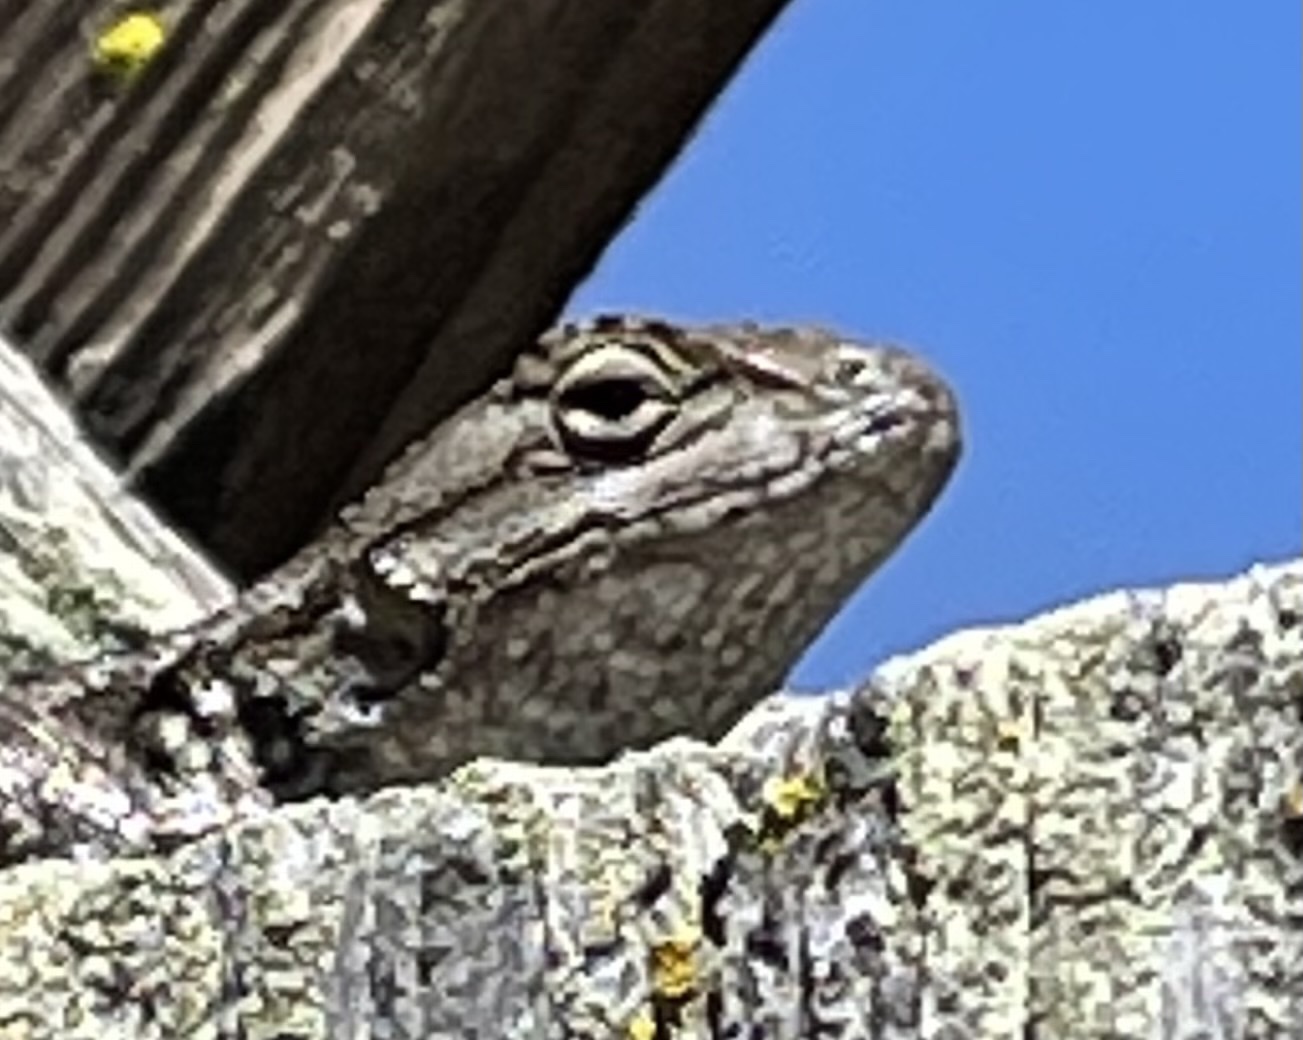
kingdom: Animalia
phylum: Chordata
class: Squamata
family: Phrynosomatidae
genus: Sceloporus
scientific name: Sceloporus occidentalis
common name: Western fence lizard
